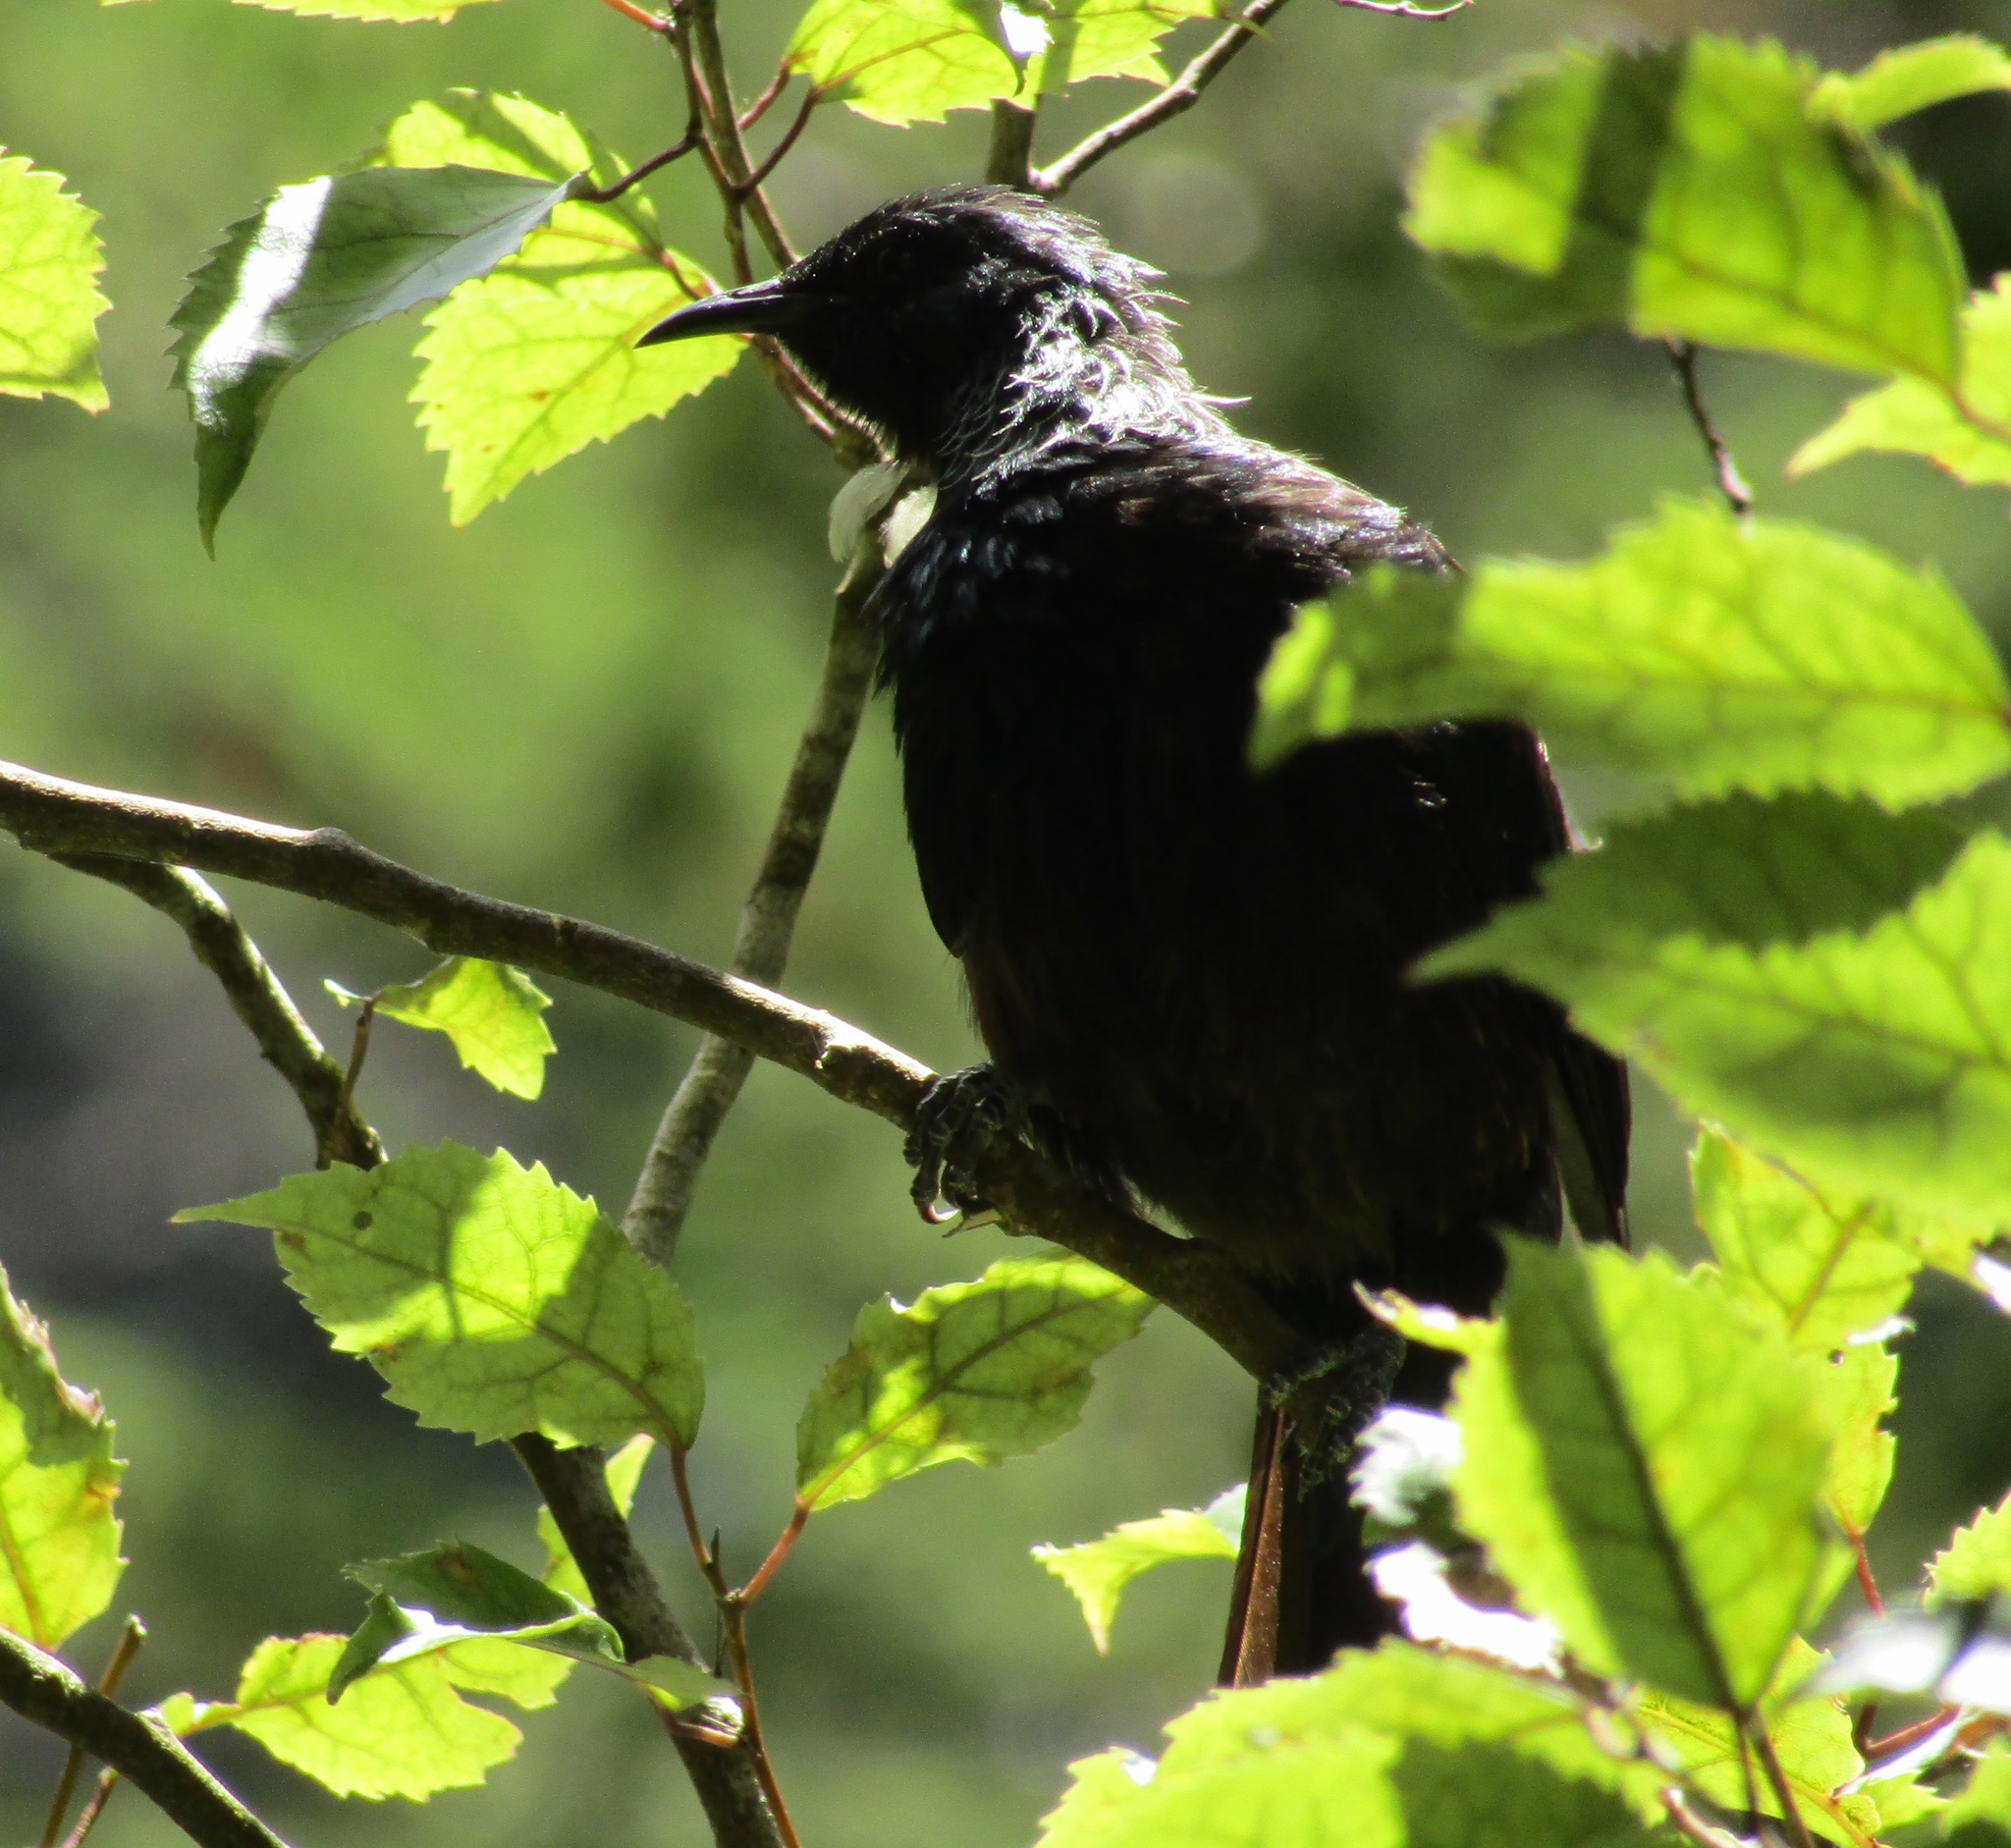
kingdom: Animalia
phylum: Chordata
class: Aves
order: Passeriformes
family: Meliphagidae
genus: Prosthemadera
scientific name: Prosthemadera novaeseelandiae
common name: Tui
